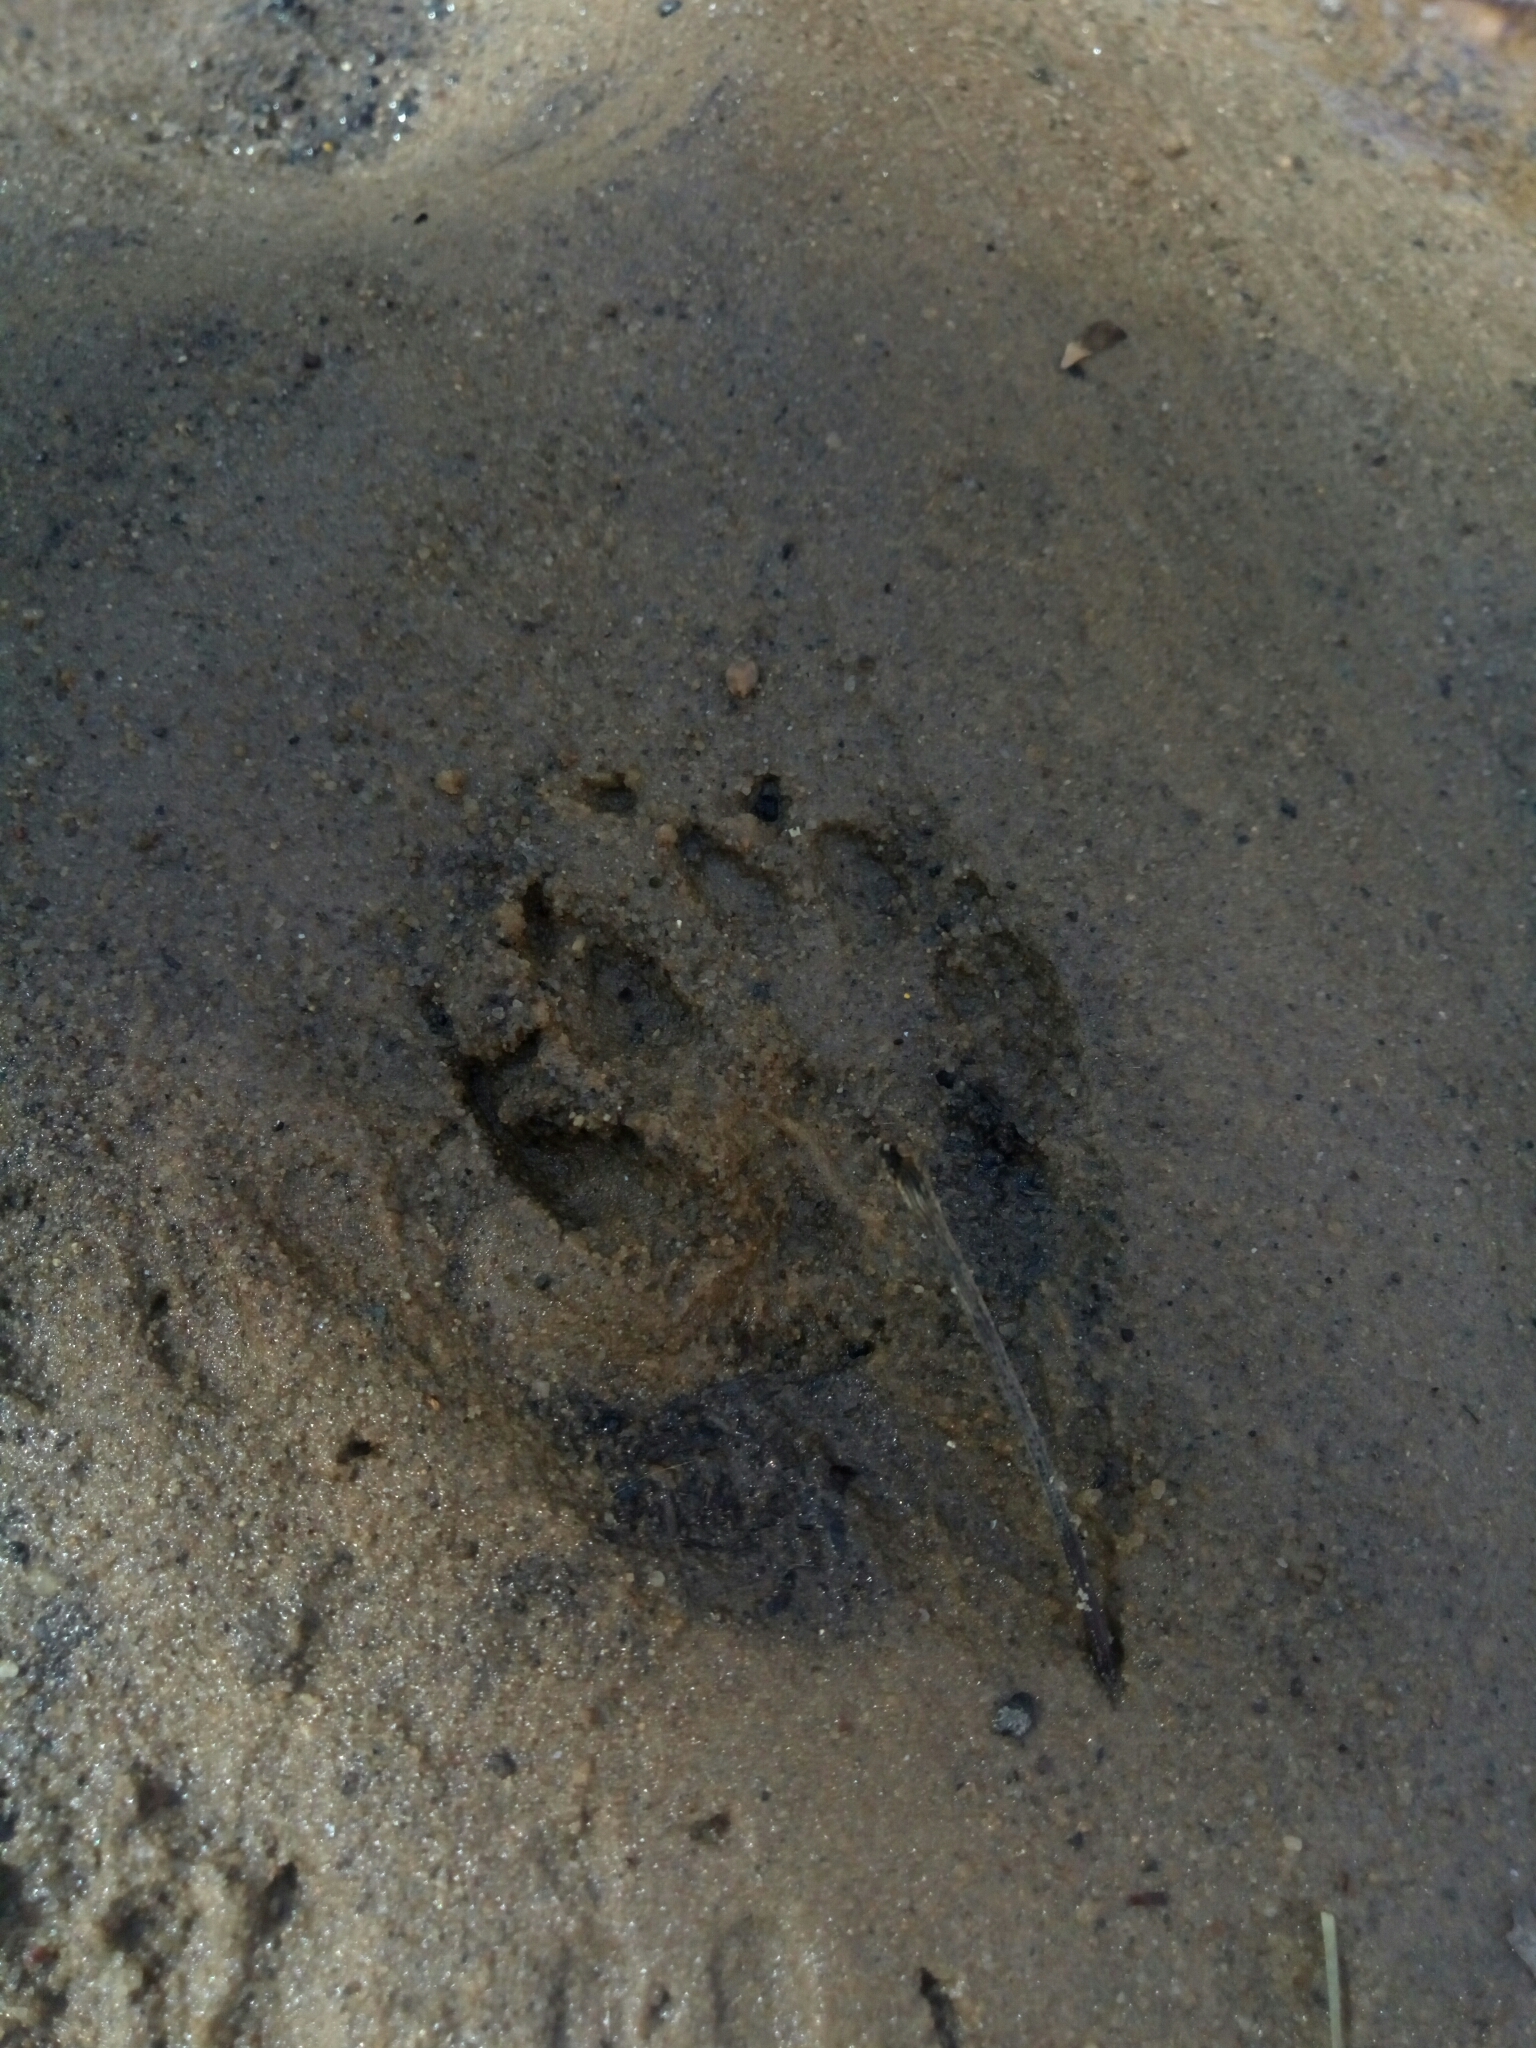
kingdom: Animalia
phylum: Chordata
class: Mammalia
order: Carnivora
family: Procyonidae
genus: Procyon
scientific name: Procyon lotor
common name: Raccoon
